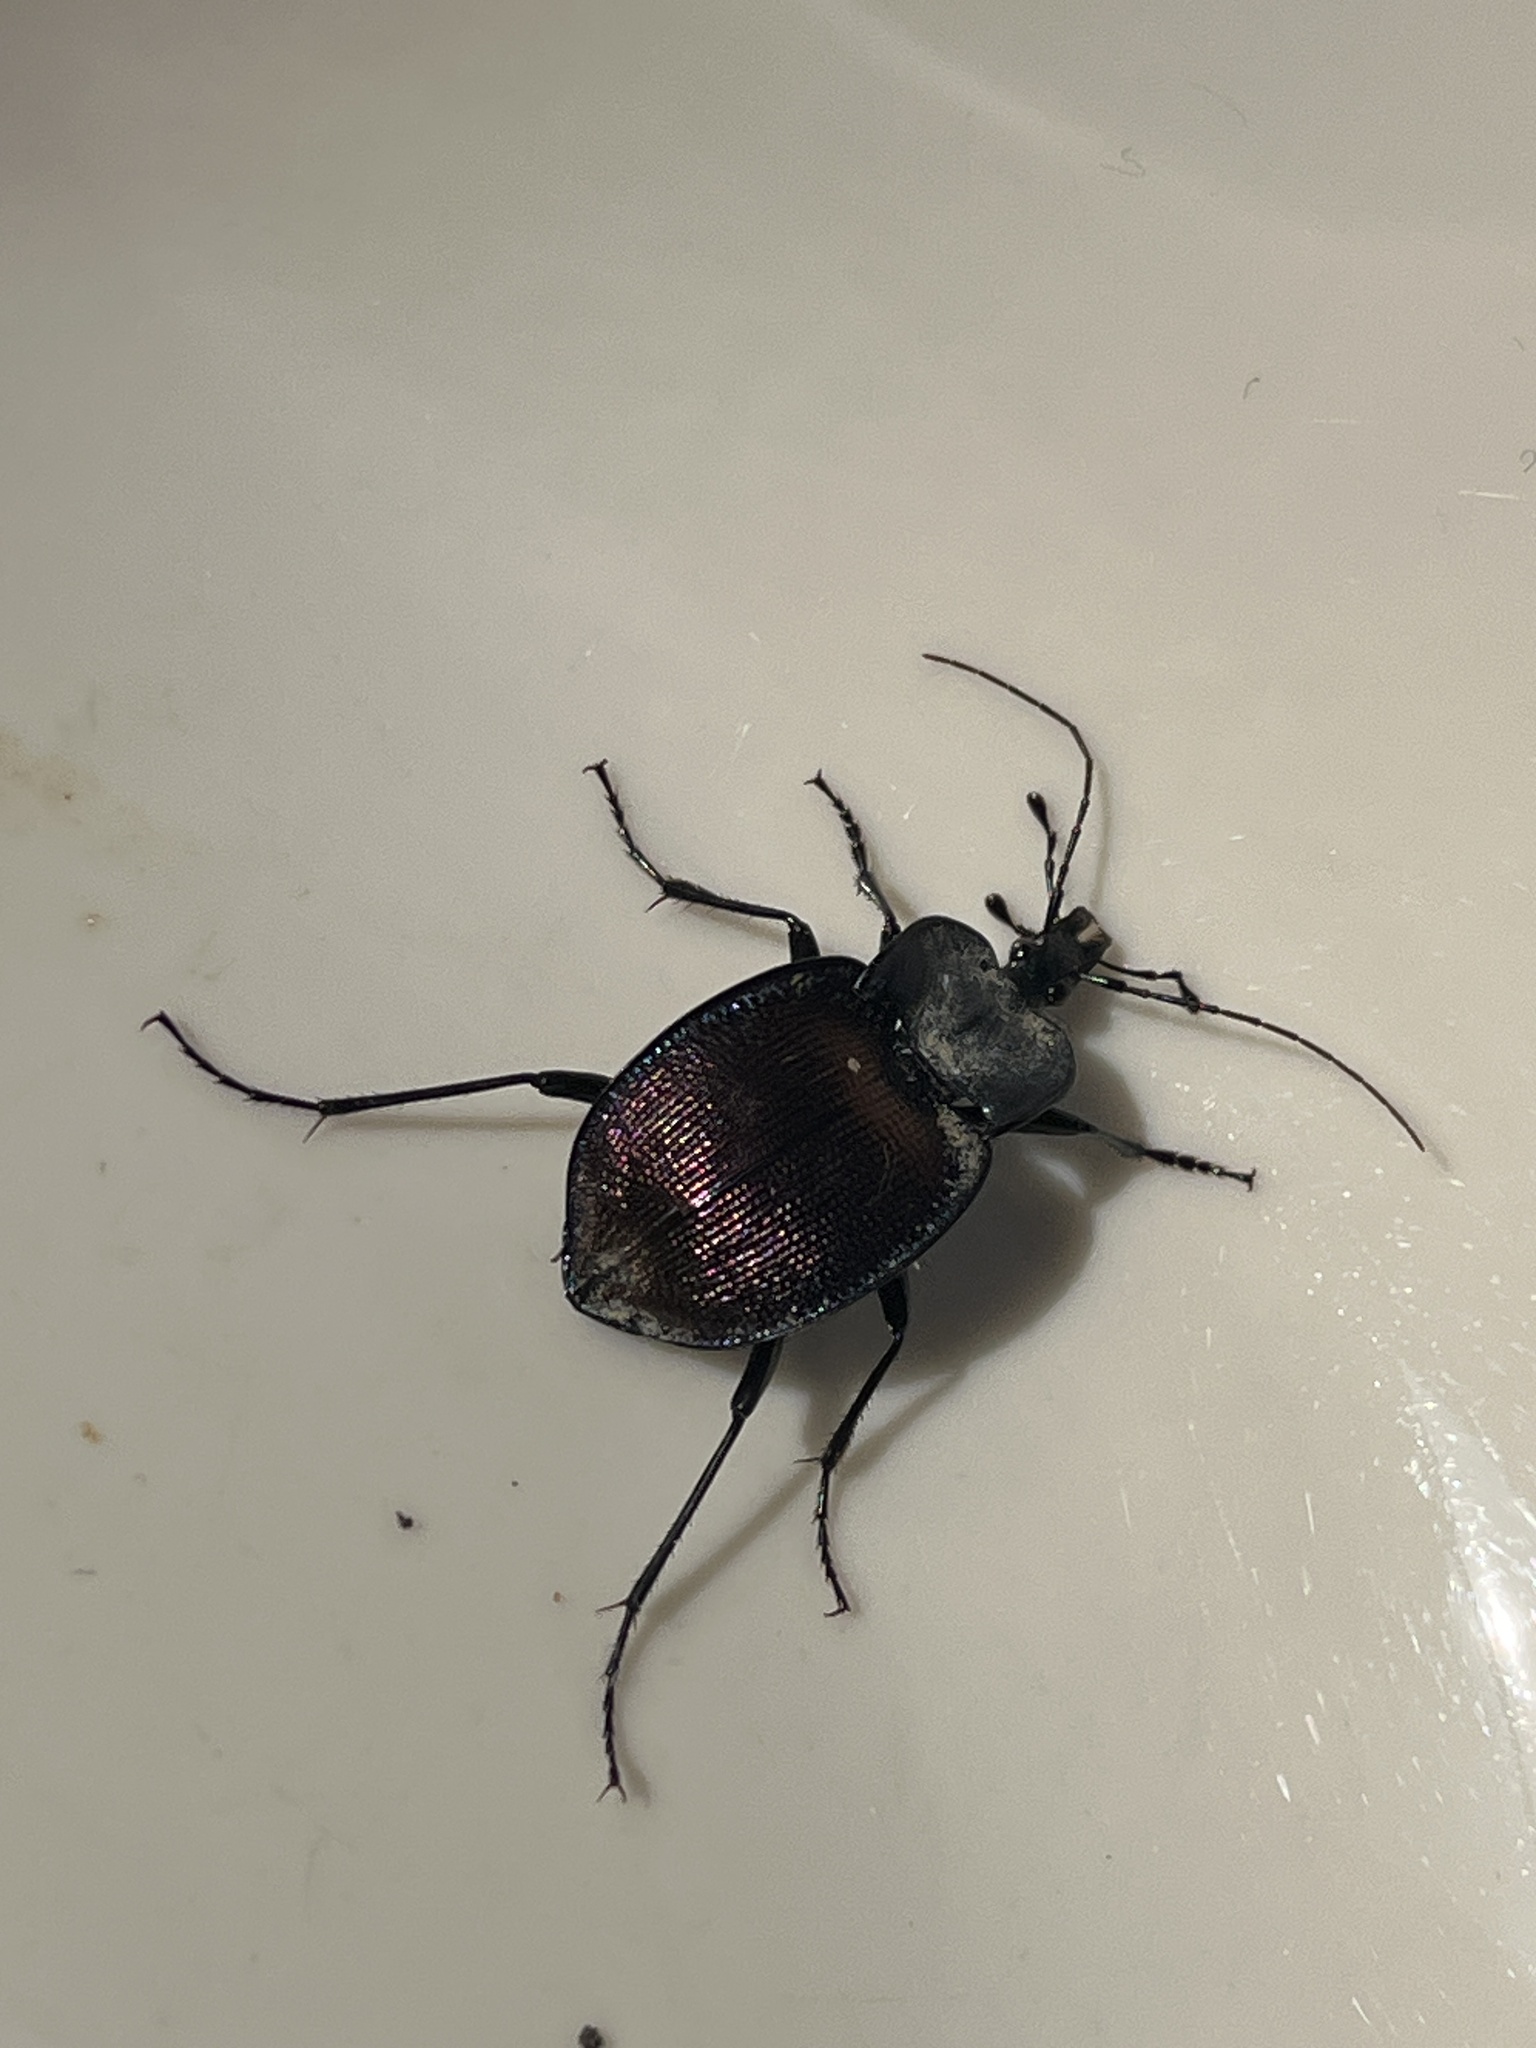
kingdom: Animalia
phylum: Arthropoda
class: Insecta
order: Coleoptera
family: Carabidae
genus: Scaphinotus
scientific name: Scaphinotus elevatus
